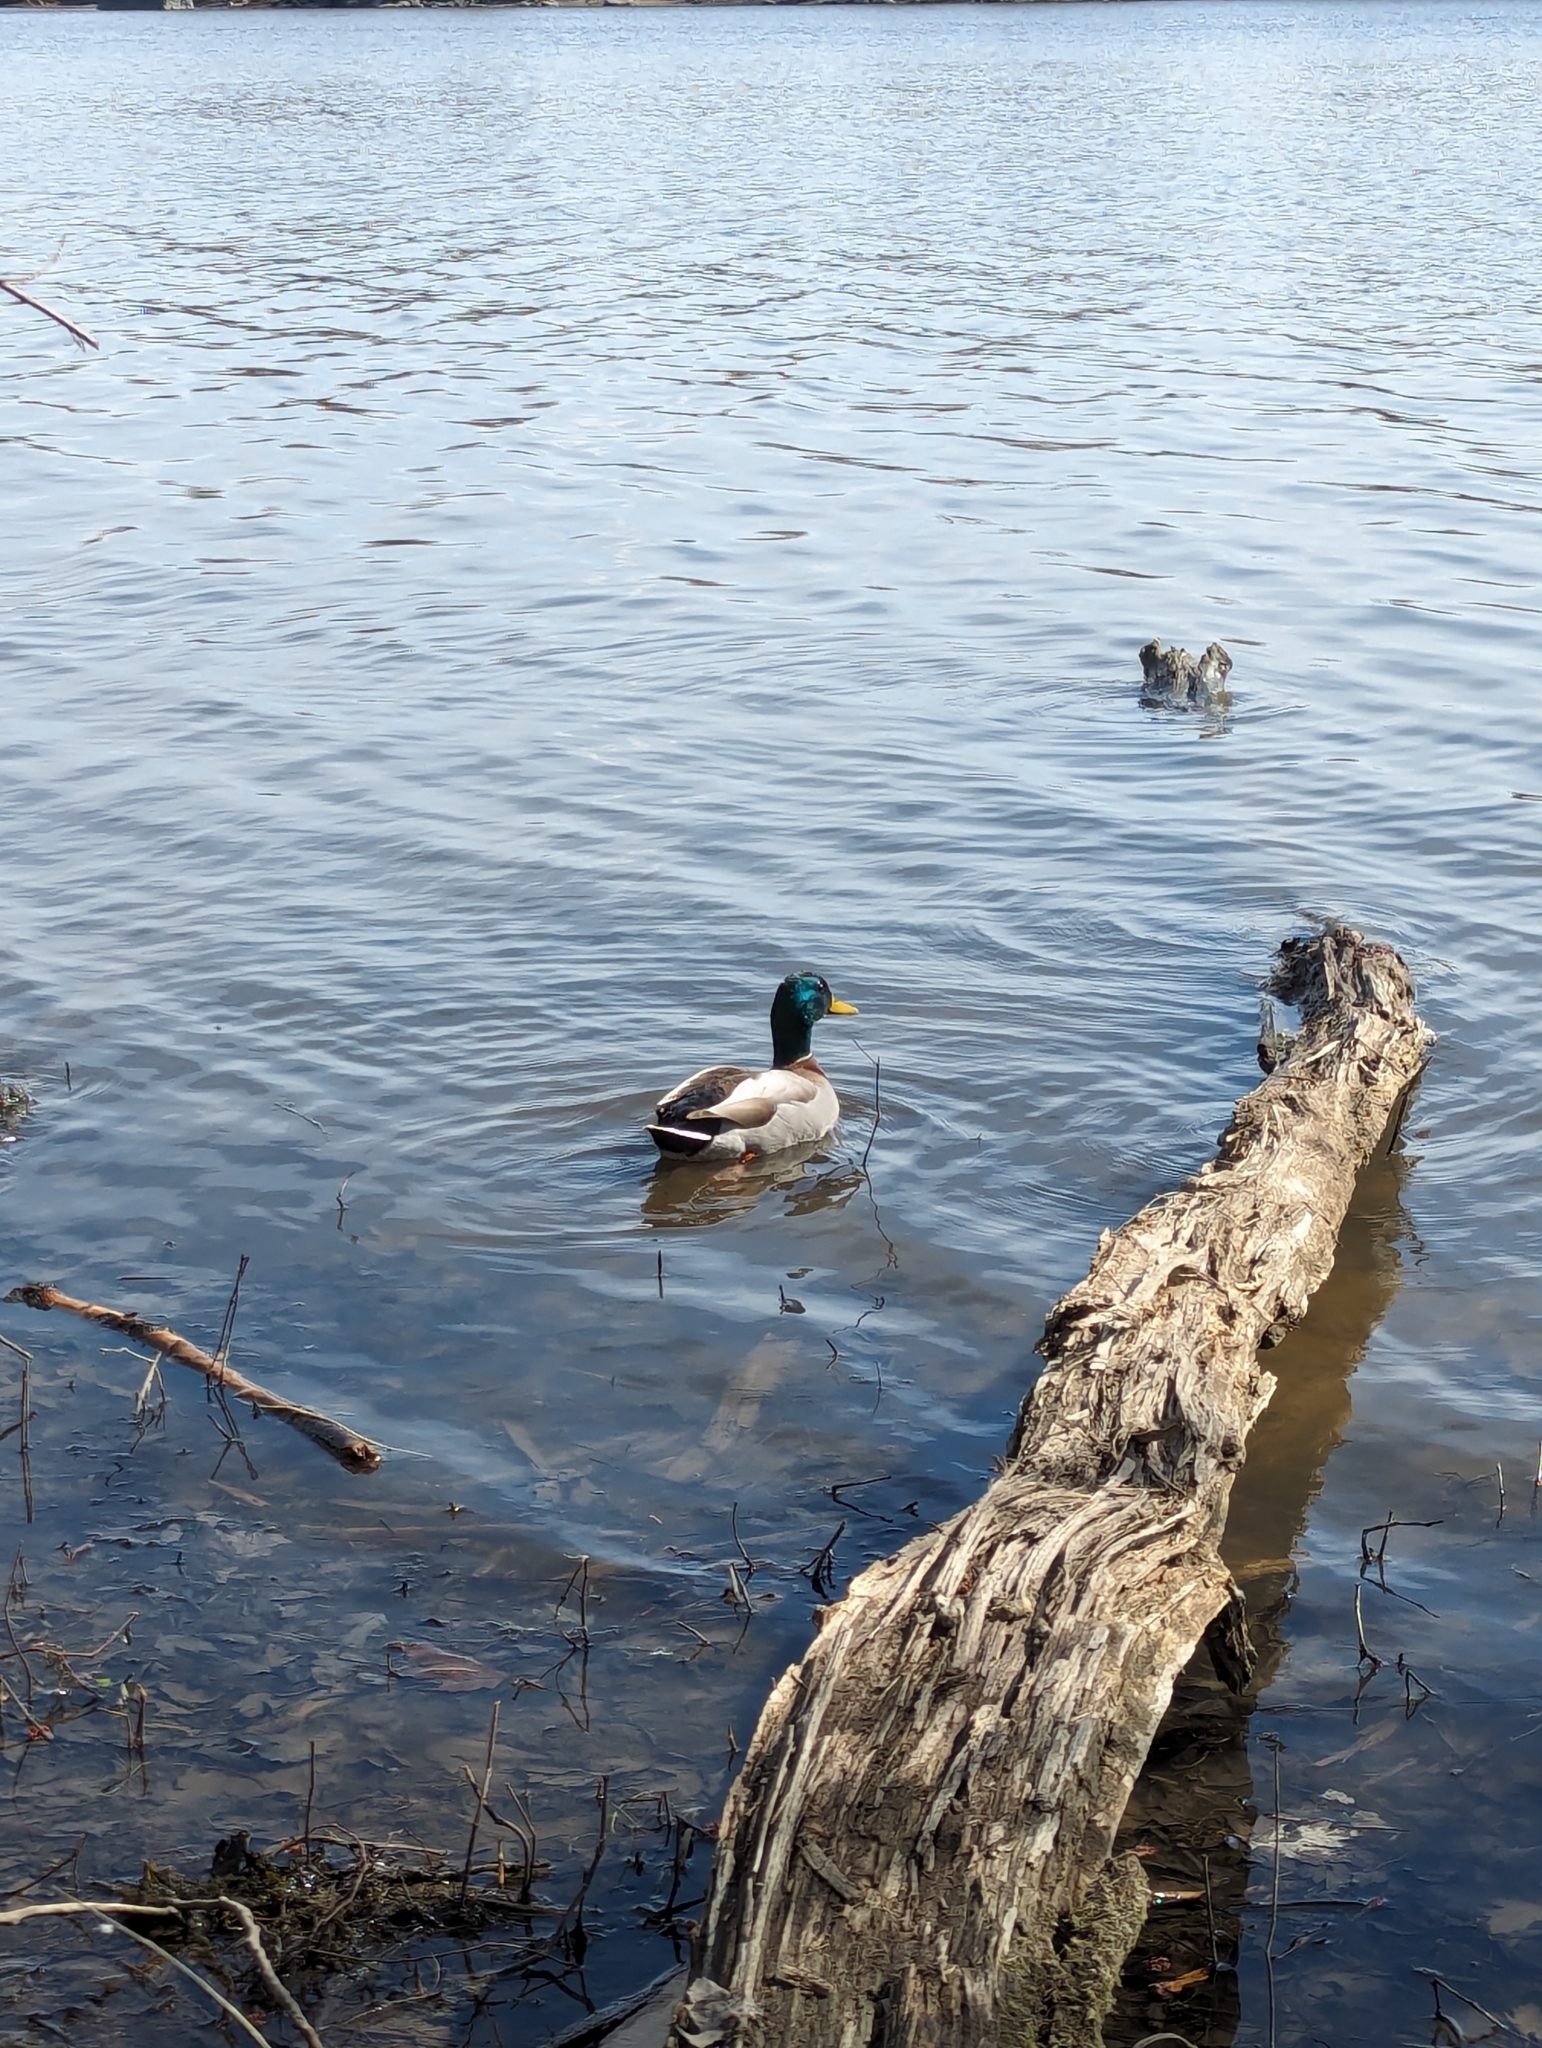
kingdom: Animalia
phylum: Chordata
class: Aves
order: Anseriformes
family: Anatidae
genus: Anas
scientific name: Anas platyrhynchos
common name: Mallard
